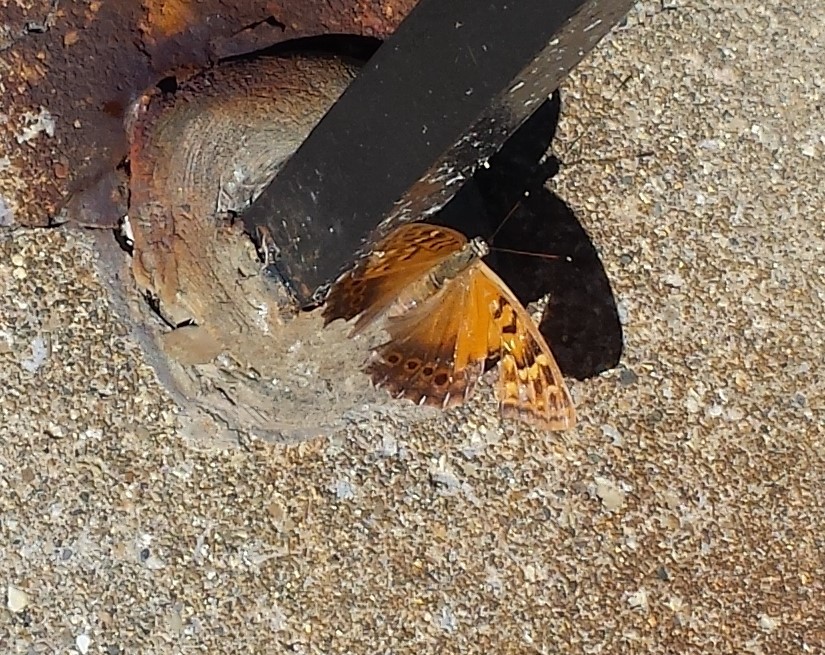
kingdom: Animalia
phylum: Arthropoda
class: Insecta
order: Lepidoptera
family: Nymphalidae
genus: Asterocampa
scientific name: Asterocampa clyton
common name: Tawny emperor
